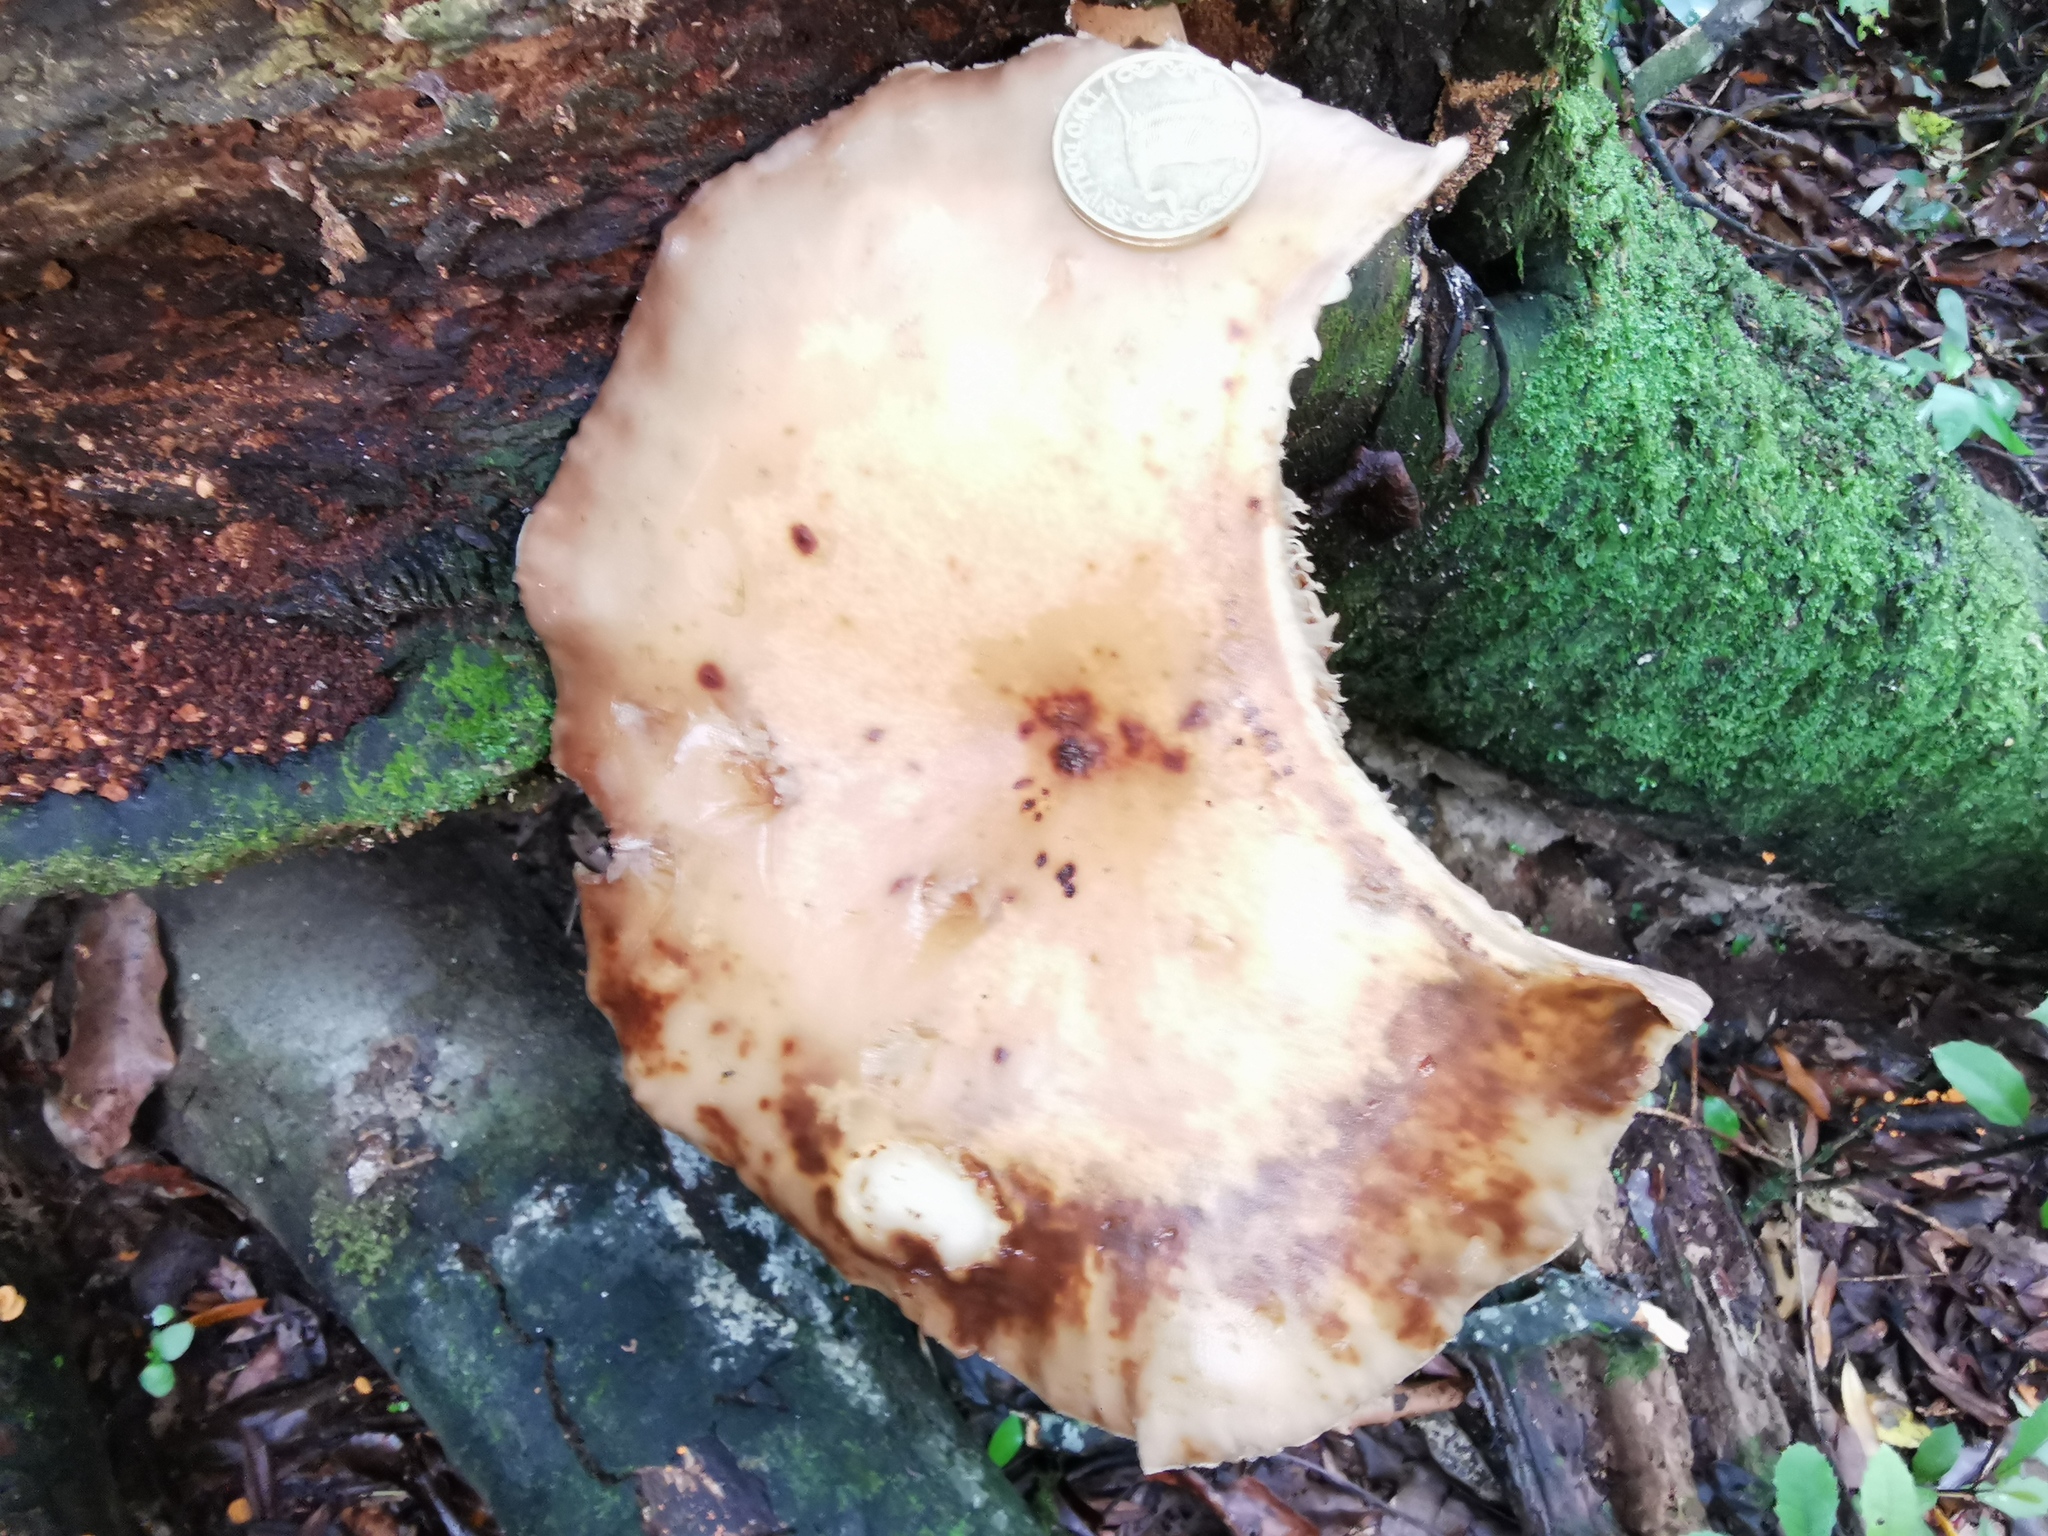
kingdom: Fungi
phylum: Basidiomycota
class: Agaricomycetes
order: Agaricales
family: Tubariaceae
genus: Cyclocybe
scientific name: Cyclocybe parasitica
